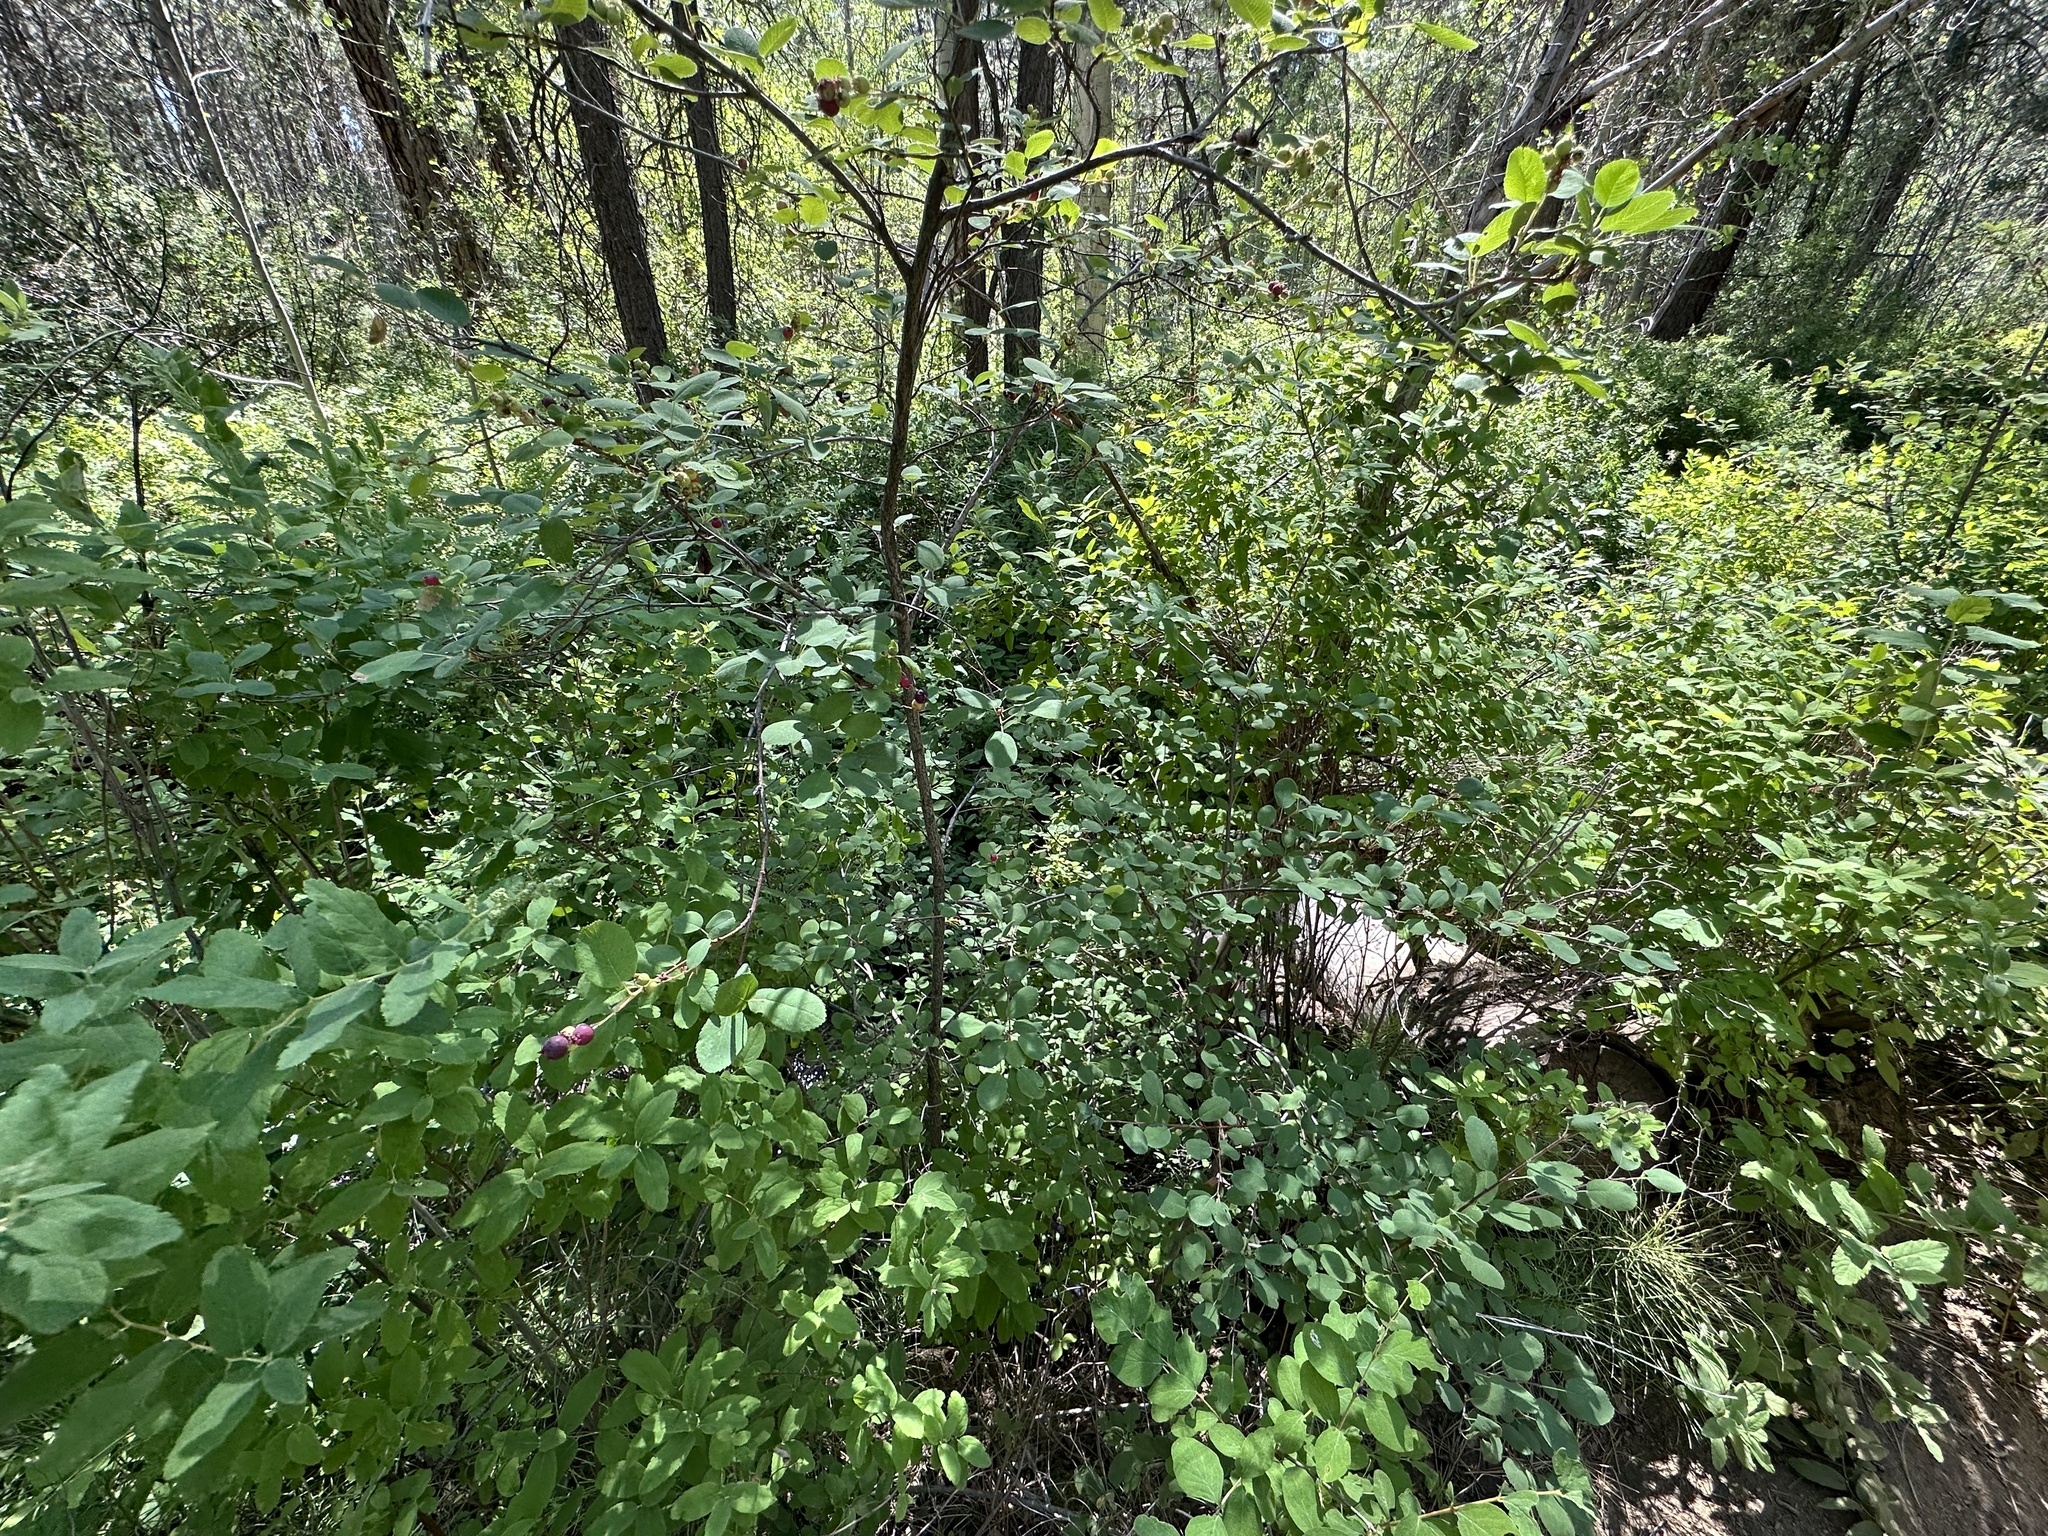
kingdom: Plantae
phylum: Tracheophyta
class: Magnoliopsida
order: Rosales
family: Rosaceae
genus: Amelanchier
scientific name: Amelanchier alnifolia
